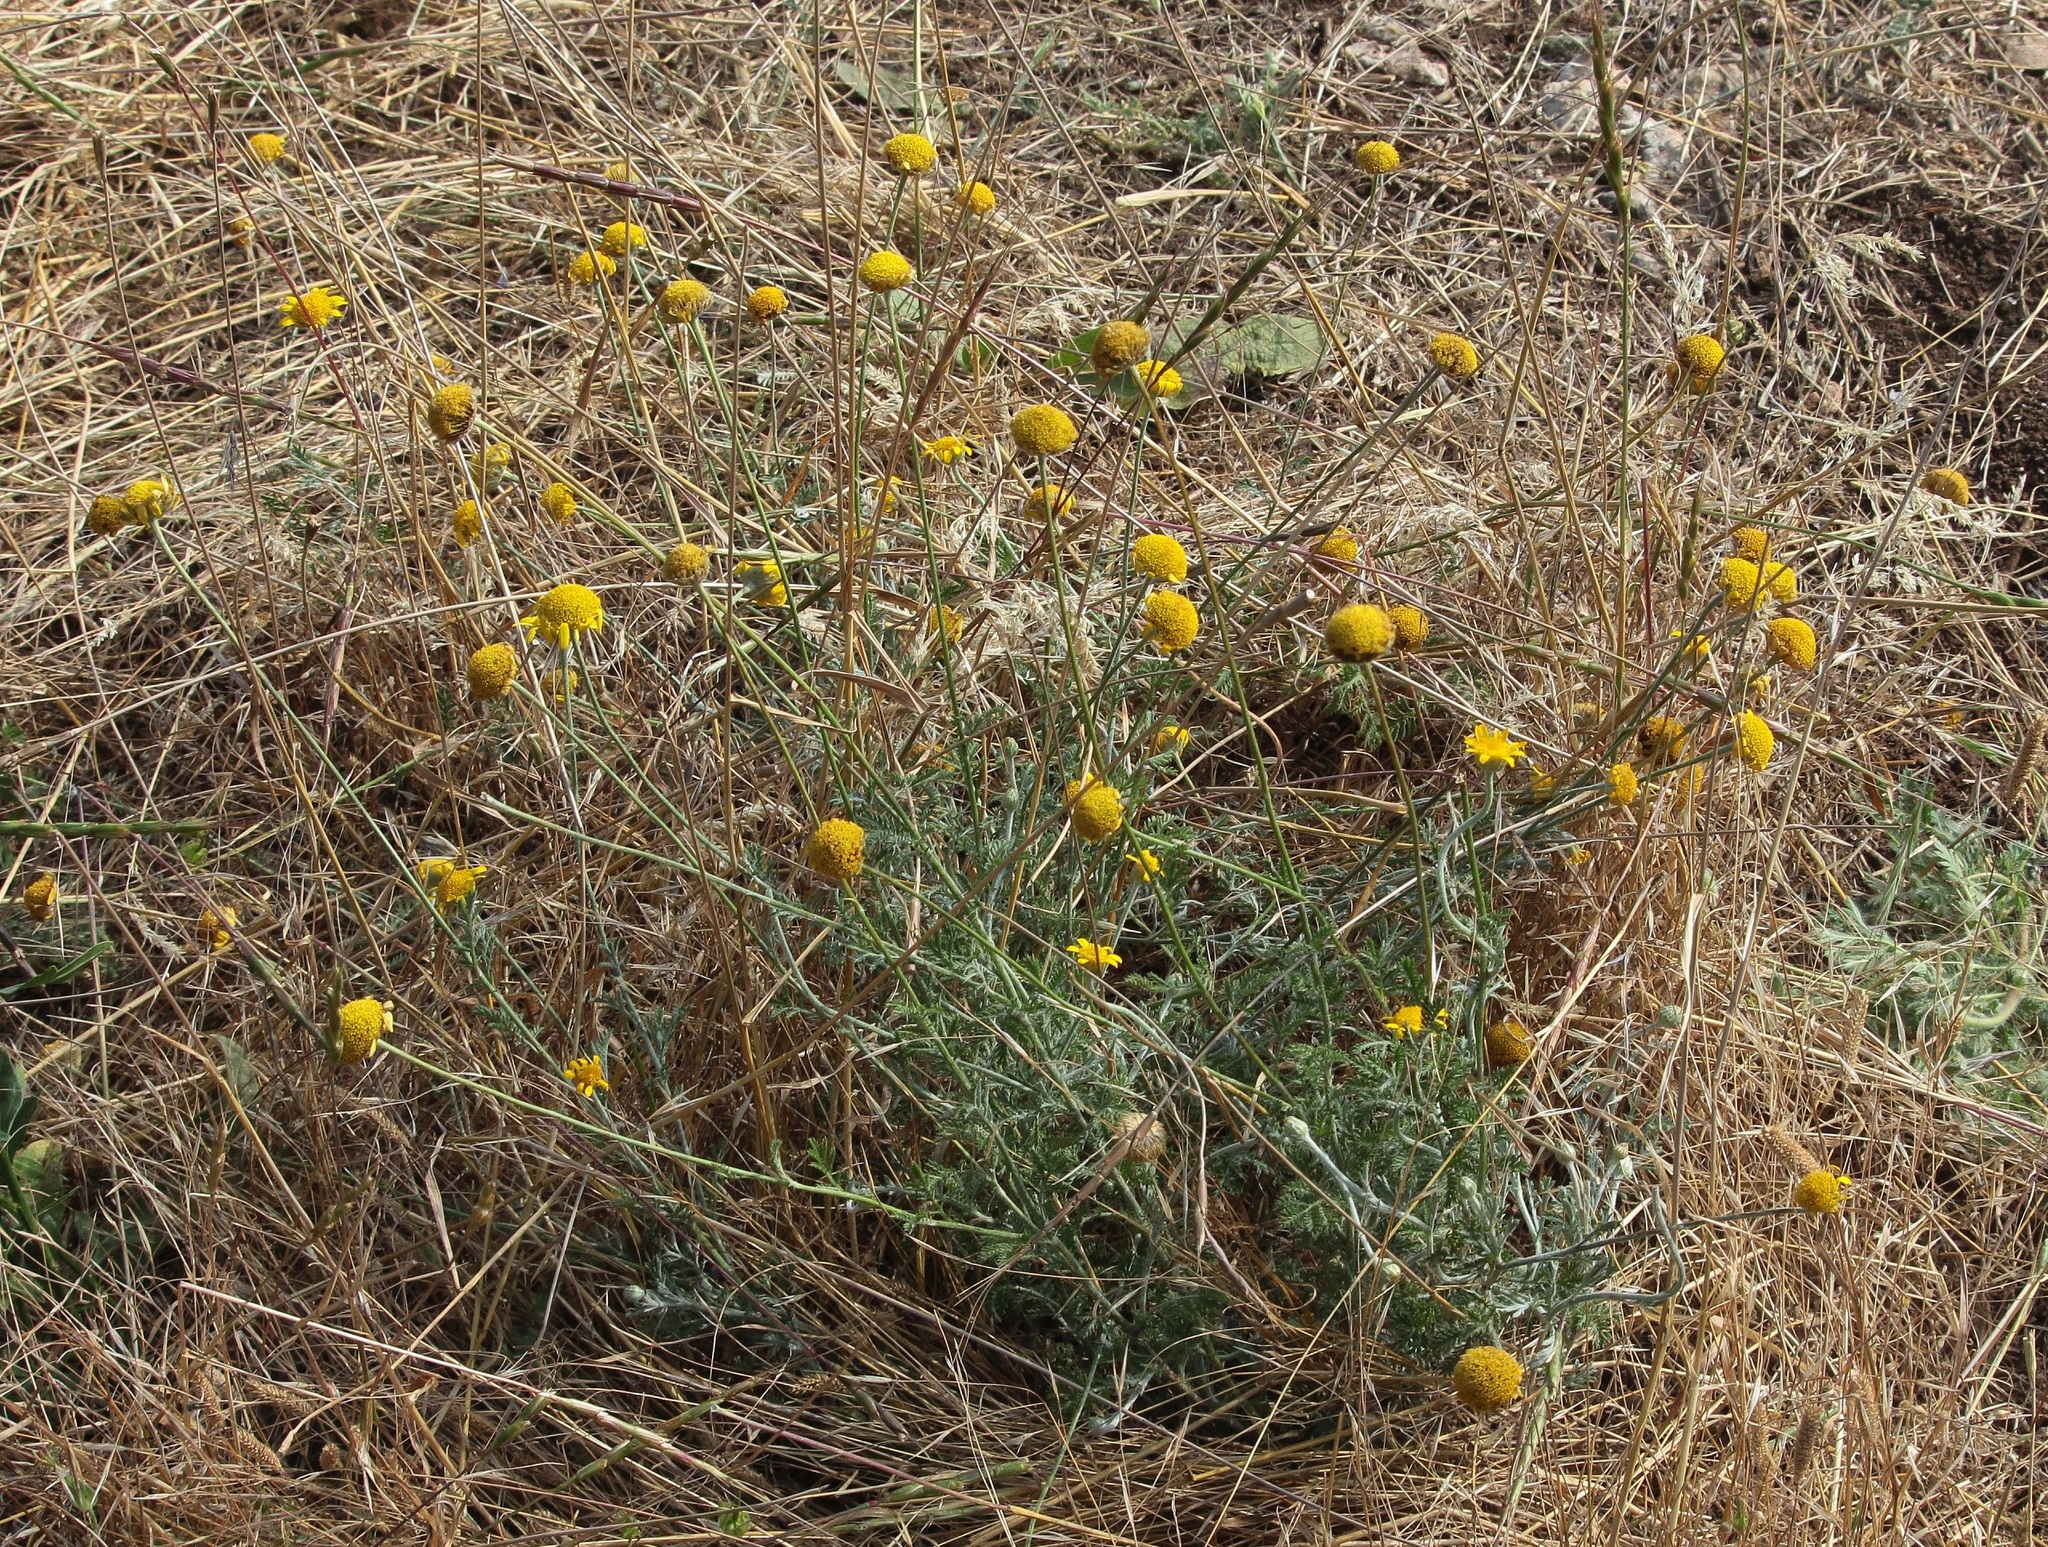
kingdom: Plantae
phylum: Tracheophyta
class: Magnoliopsida
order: Asterales
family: Asteraceae
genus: Tanacetum
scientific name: Tanacetum achilleifolium
